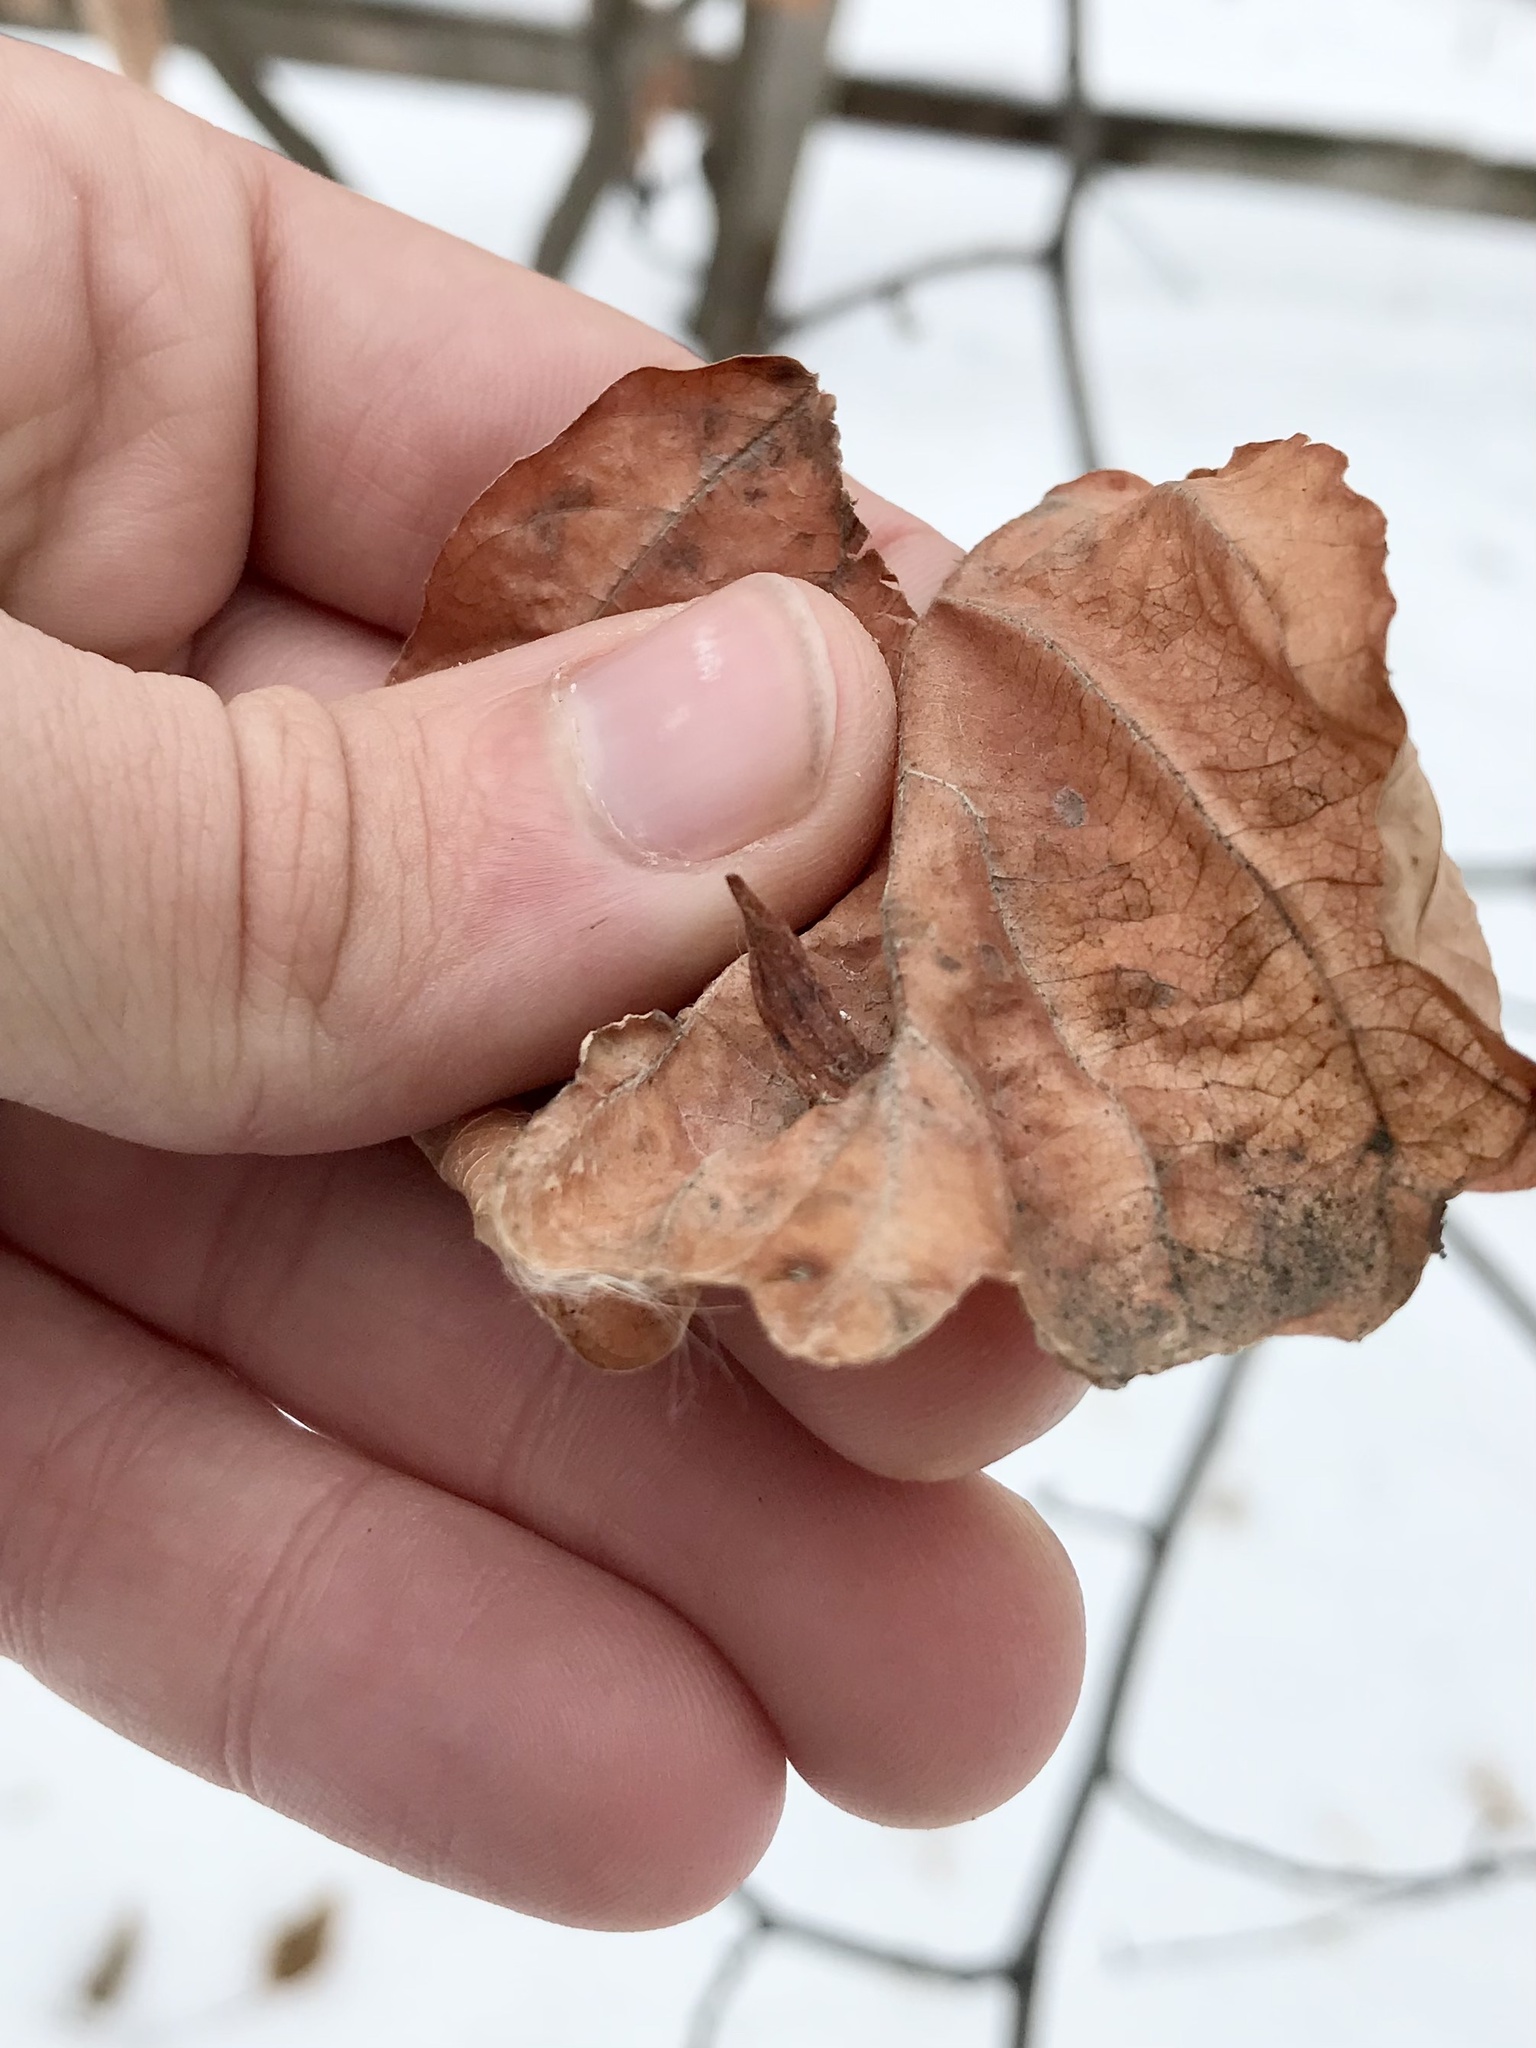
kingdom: Animalia
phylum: Arthropoda
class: Insecta
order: Hemiptera
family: Aphididae
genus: Hormaphis
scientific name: Hormaphis hamamelidis
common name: Witch-hazel cone gall aphid
